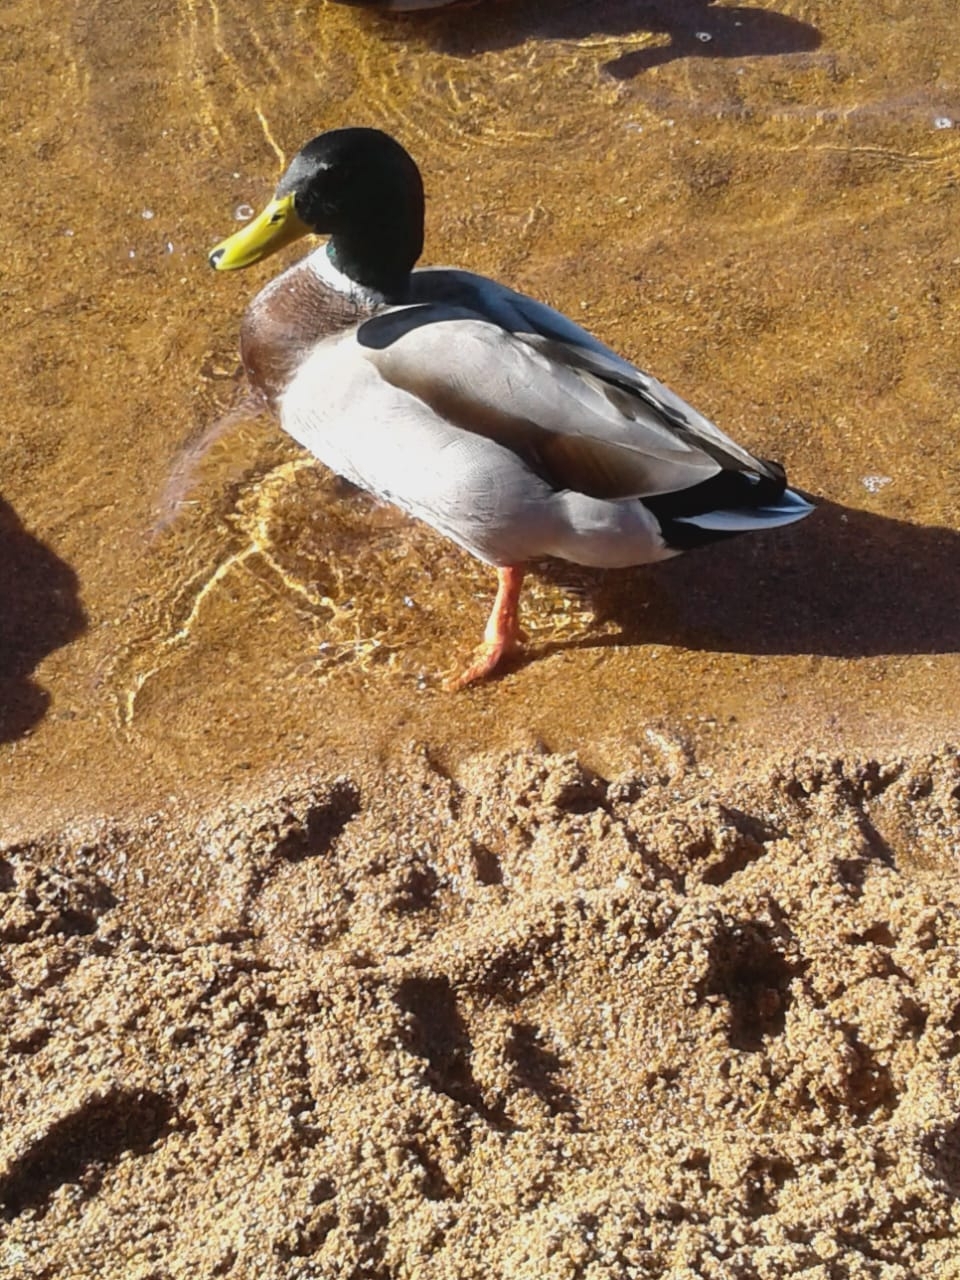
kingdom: Animalia
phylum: Chordata
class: Aves
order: Anseriformes
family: Anatidae
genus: Anas
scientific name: Anas platyrhynchos
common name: Mallard
